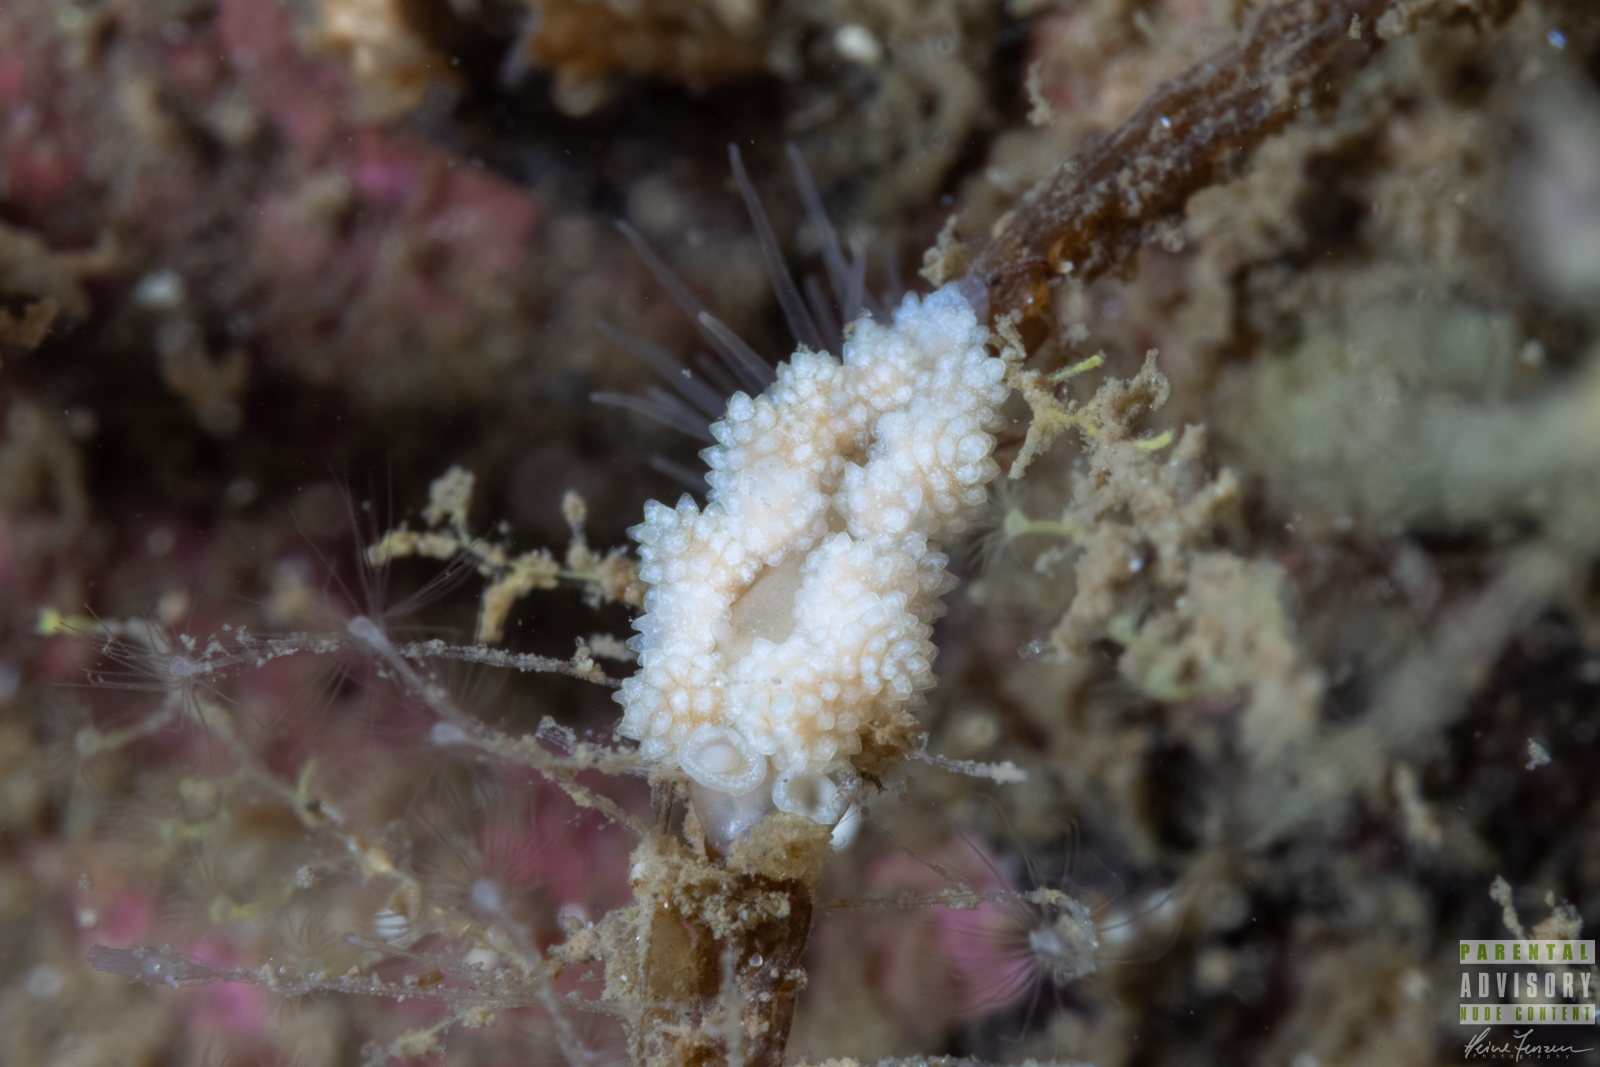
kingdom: Animalia
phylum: Mollusca
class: Gastropoda
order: Nudibranchia
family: Dotidae
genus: Doto
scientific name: Doto fragilis
